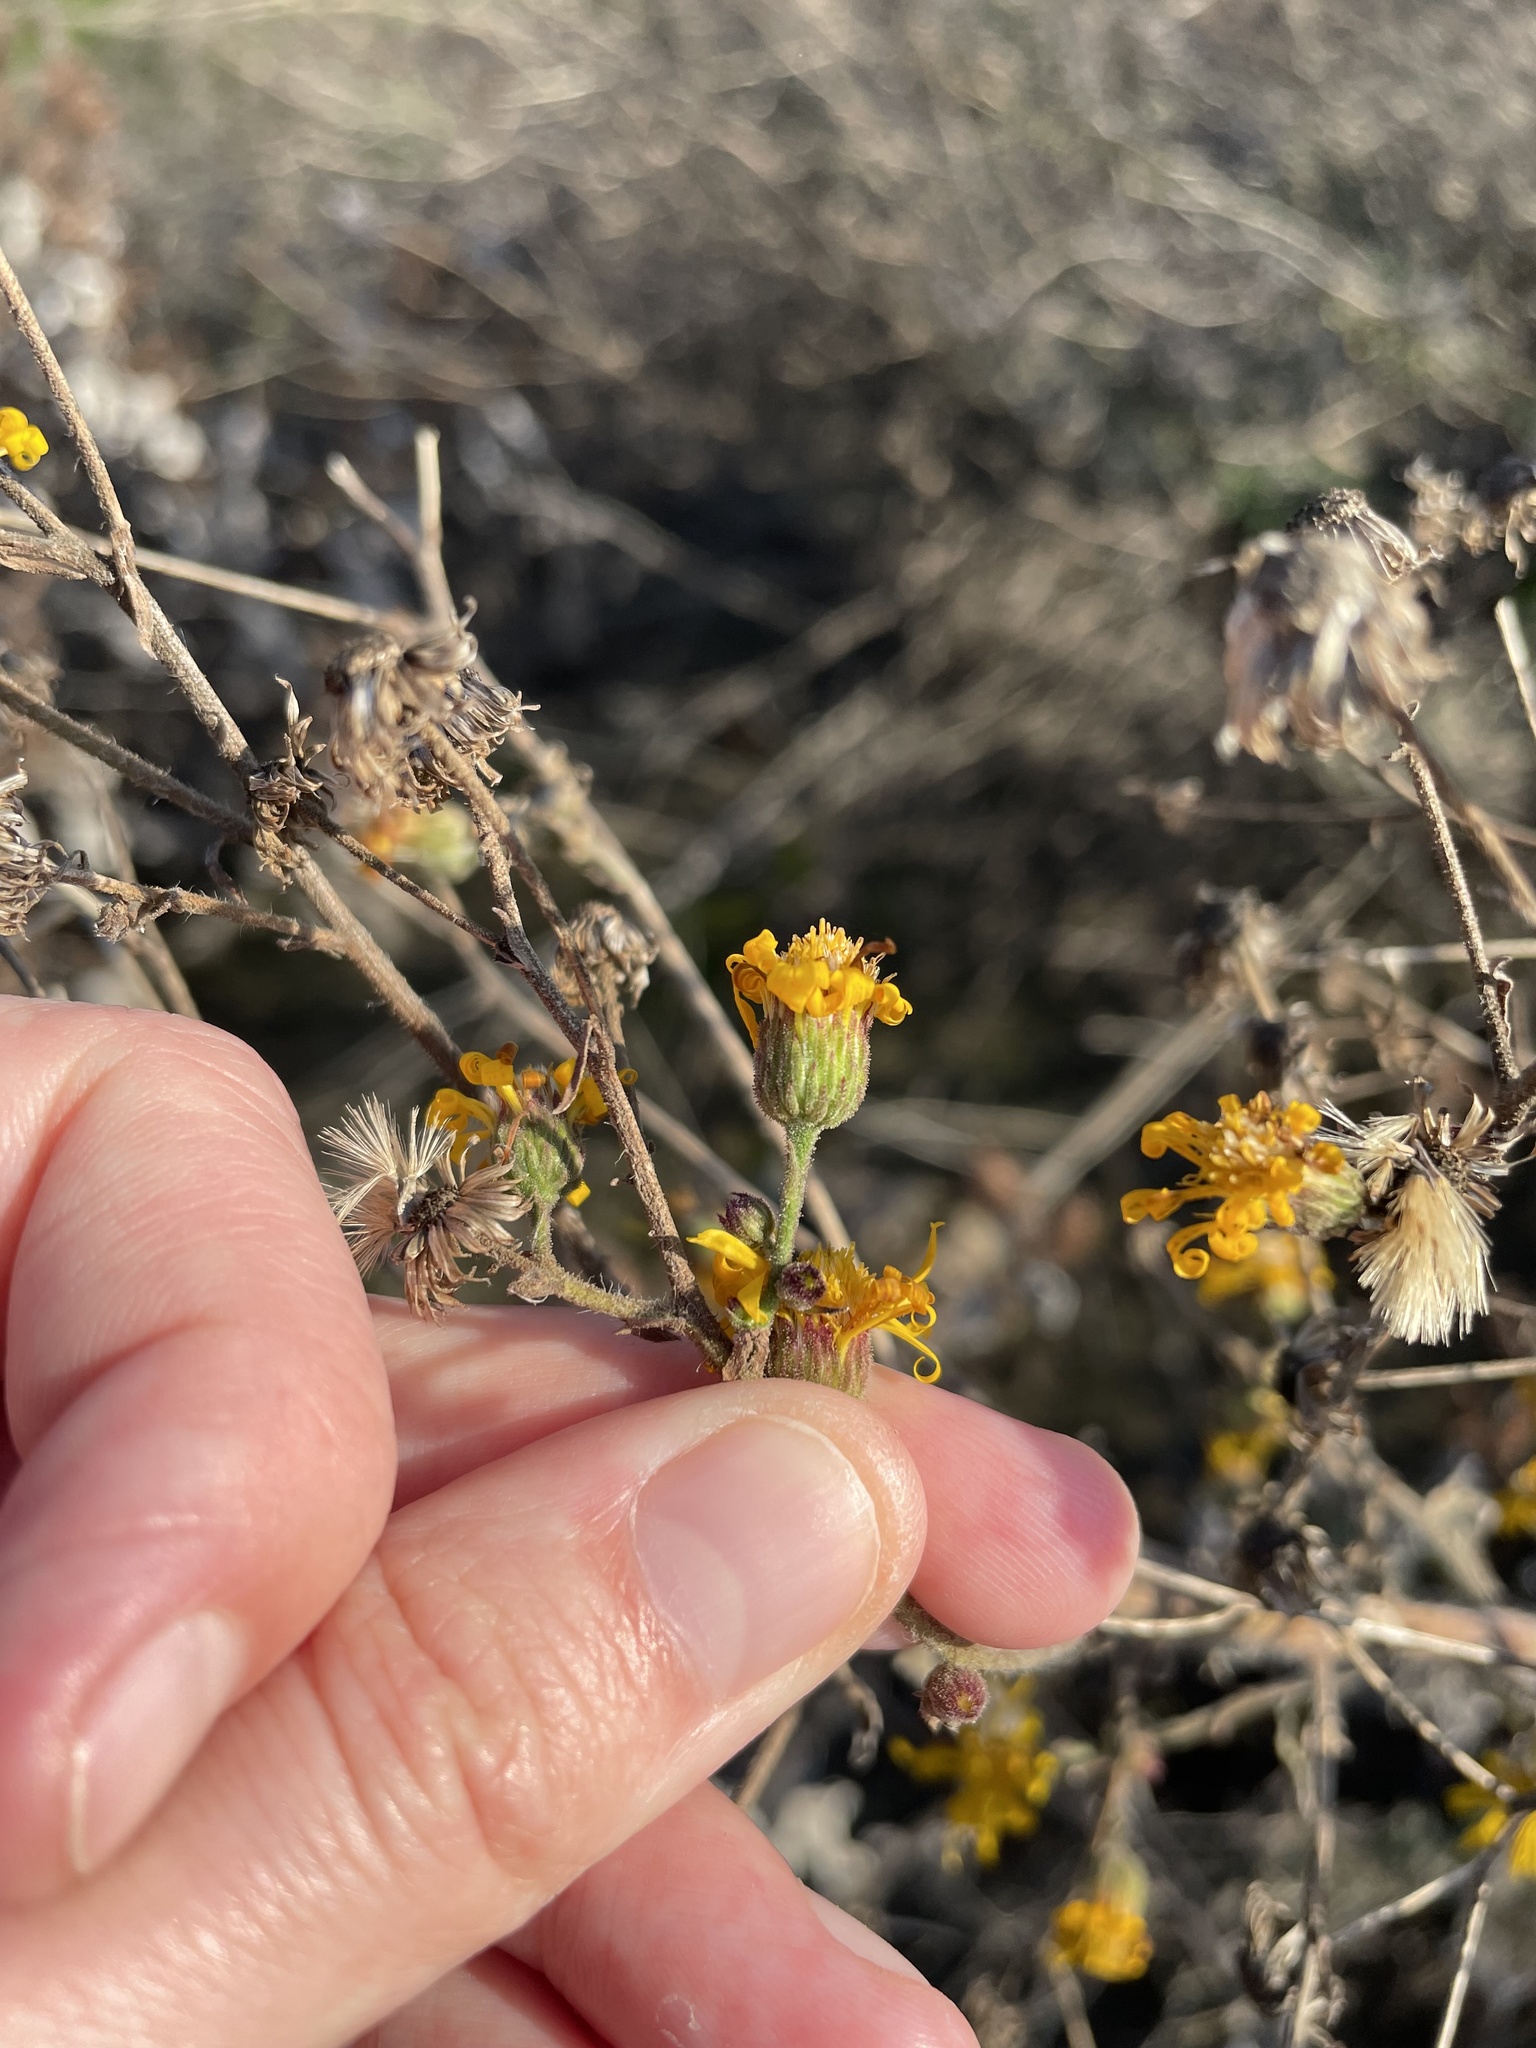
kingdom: Plantae
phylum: Tracheophyta
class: Magnoliopsida
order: Asterales
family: Asteraceae
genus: Heterotheca
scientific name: Heterotheca grandiflora
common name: Telegraphweed
